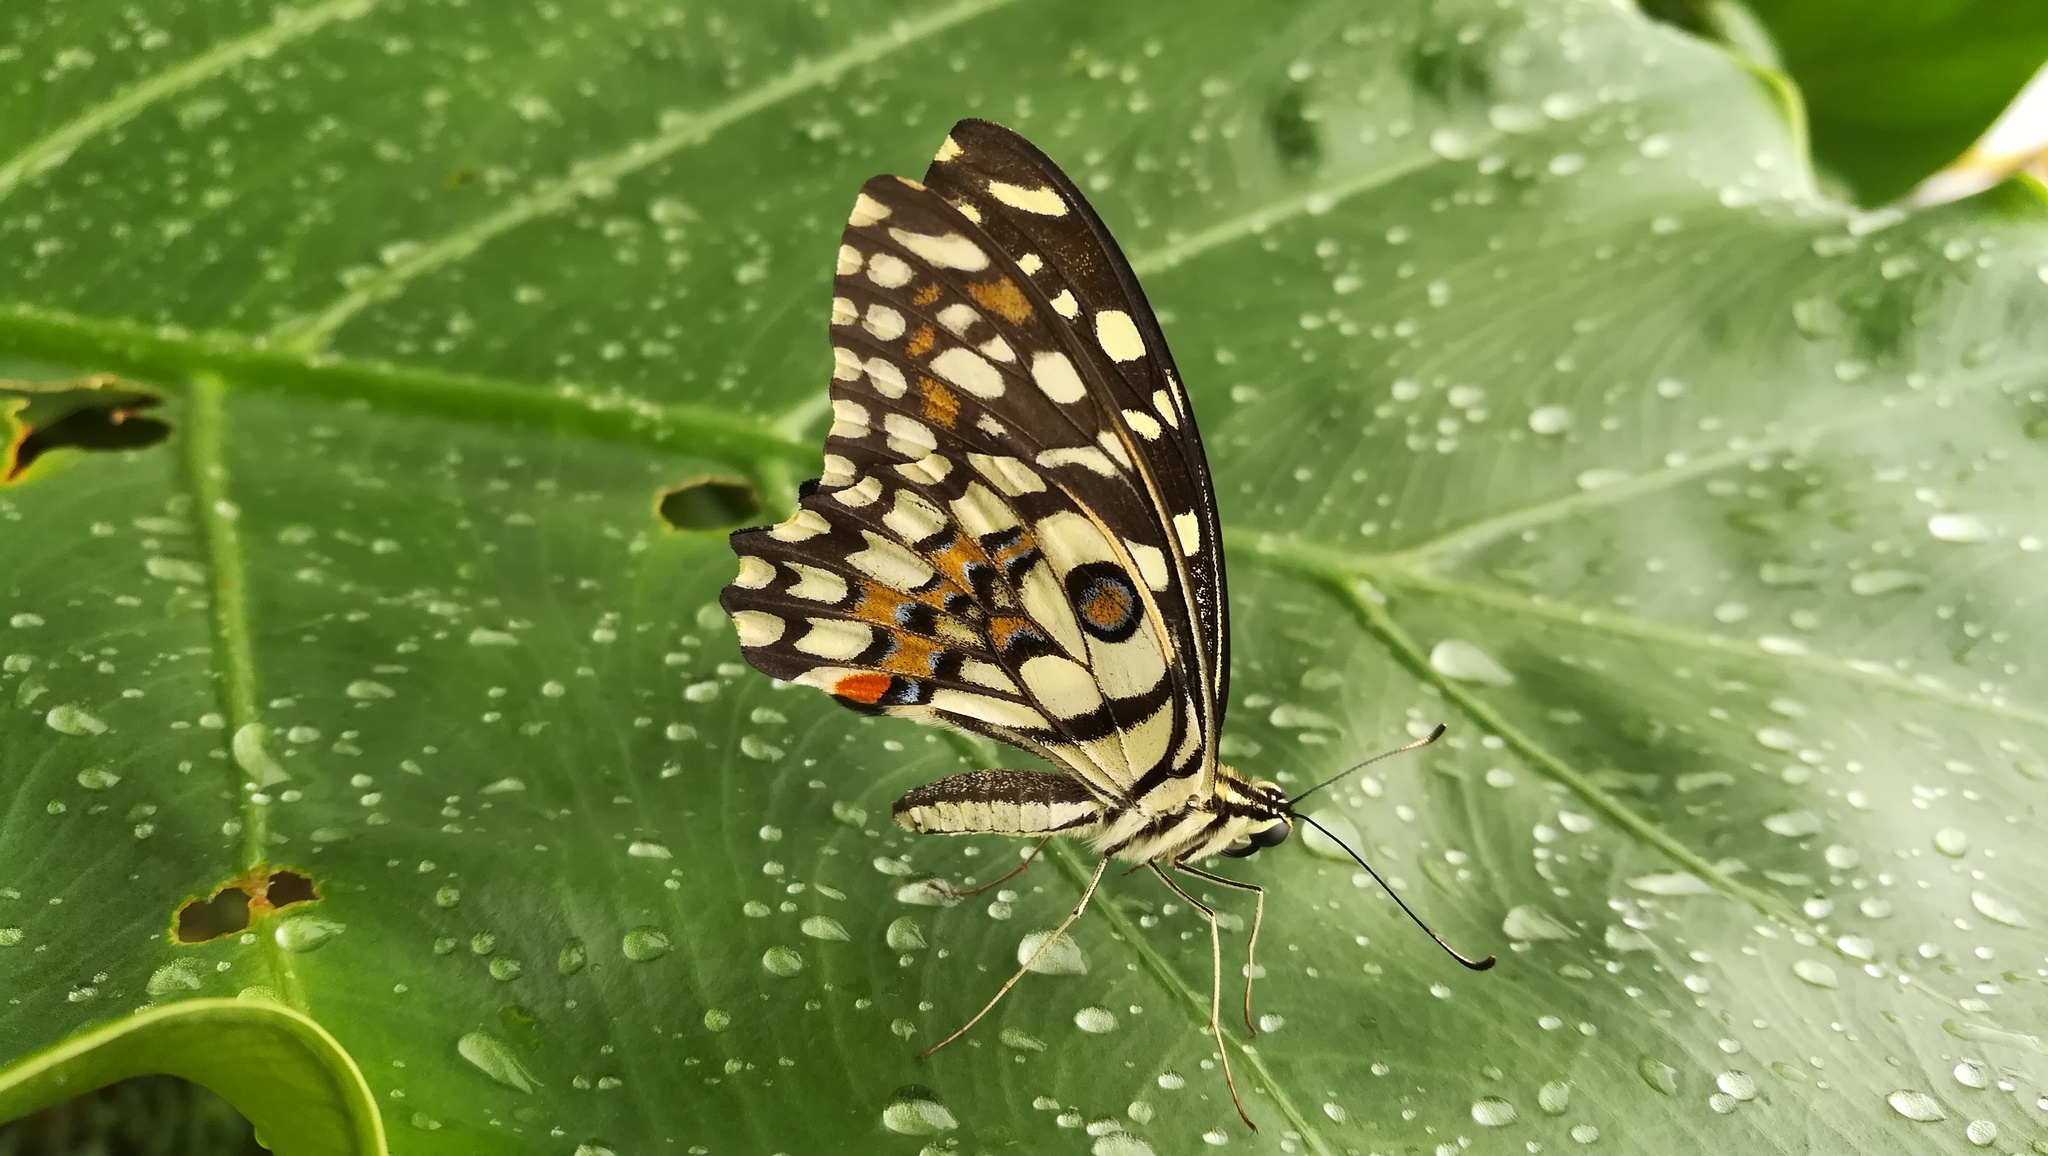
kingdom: Animalia
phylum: Arthropoda
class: Insecta
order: Lepidoptera
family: Papilionidae
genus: Papilio
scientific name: Papilio demoleus
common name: Lime butterfly
